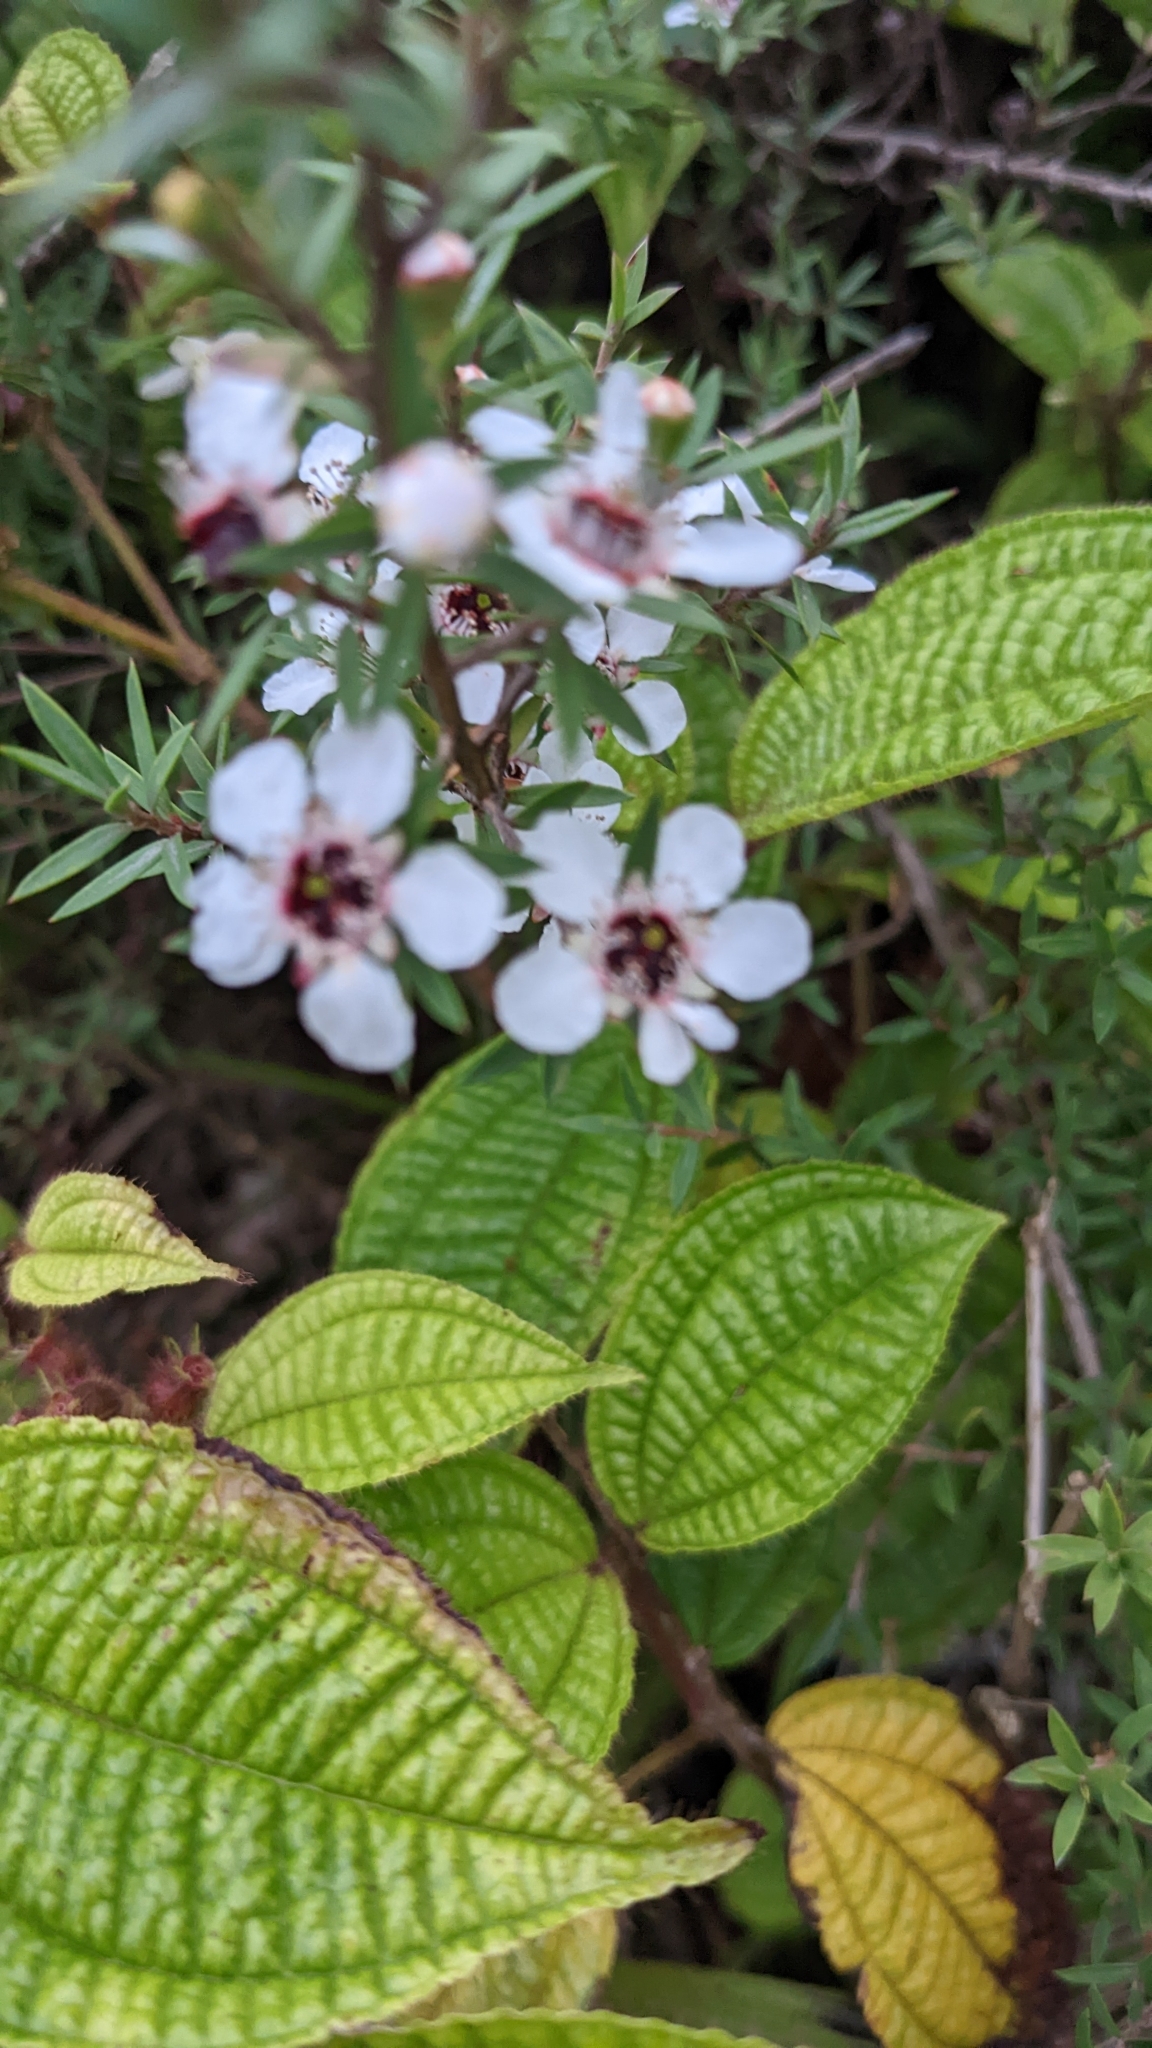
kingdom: Plantae
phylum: Tracheophyta
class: Magnoliopsida
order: Myrtales
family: Myrtaceae
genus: Leptospermum
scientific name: Leptospermum scoparium
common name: Broom tea-tree
